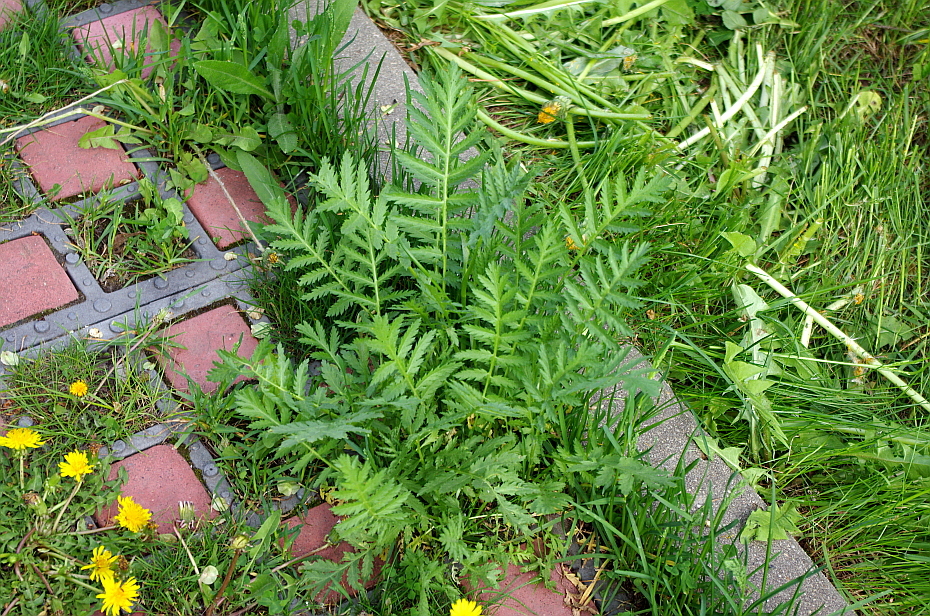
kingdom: Plantae
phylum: Tracheophyta
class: Magnoliopsida
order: Asterales
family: Asteraceae
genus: Tanacetum
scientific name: Tanacetum vulgare
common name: Common tansy
